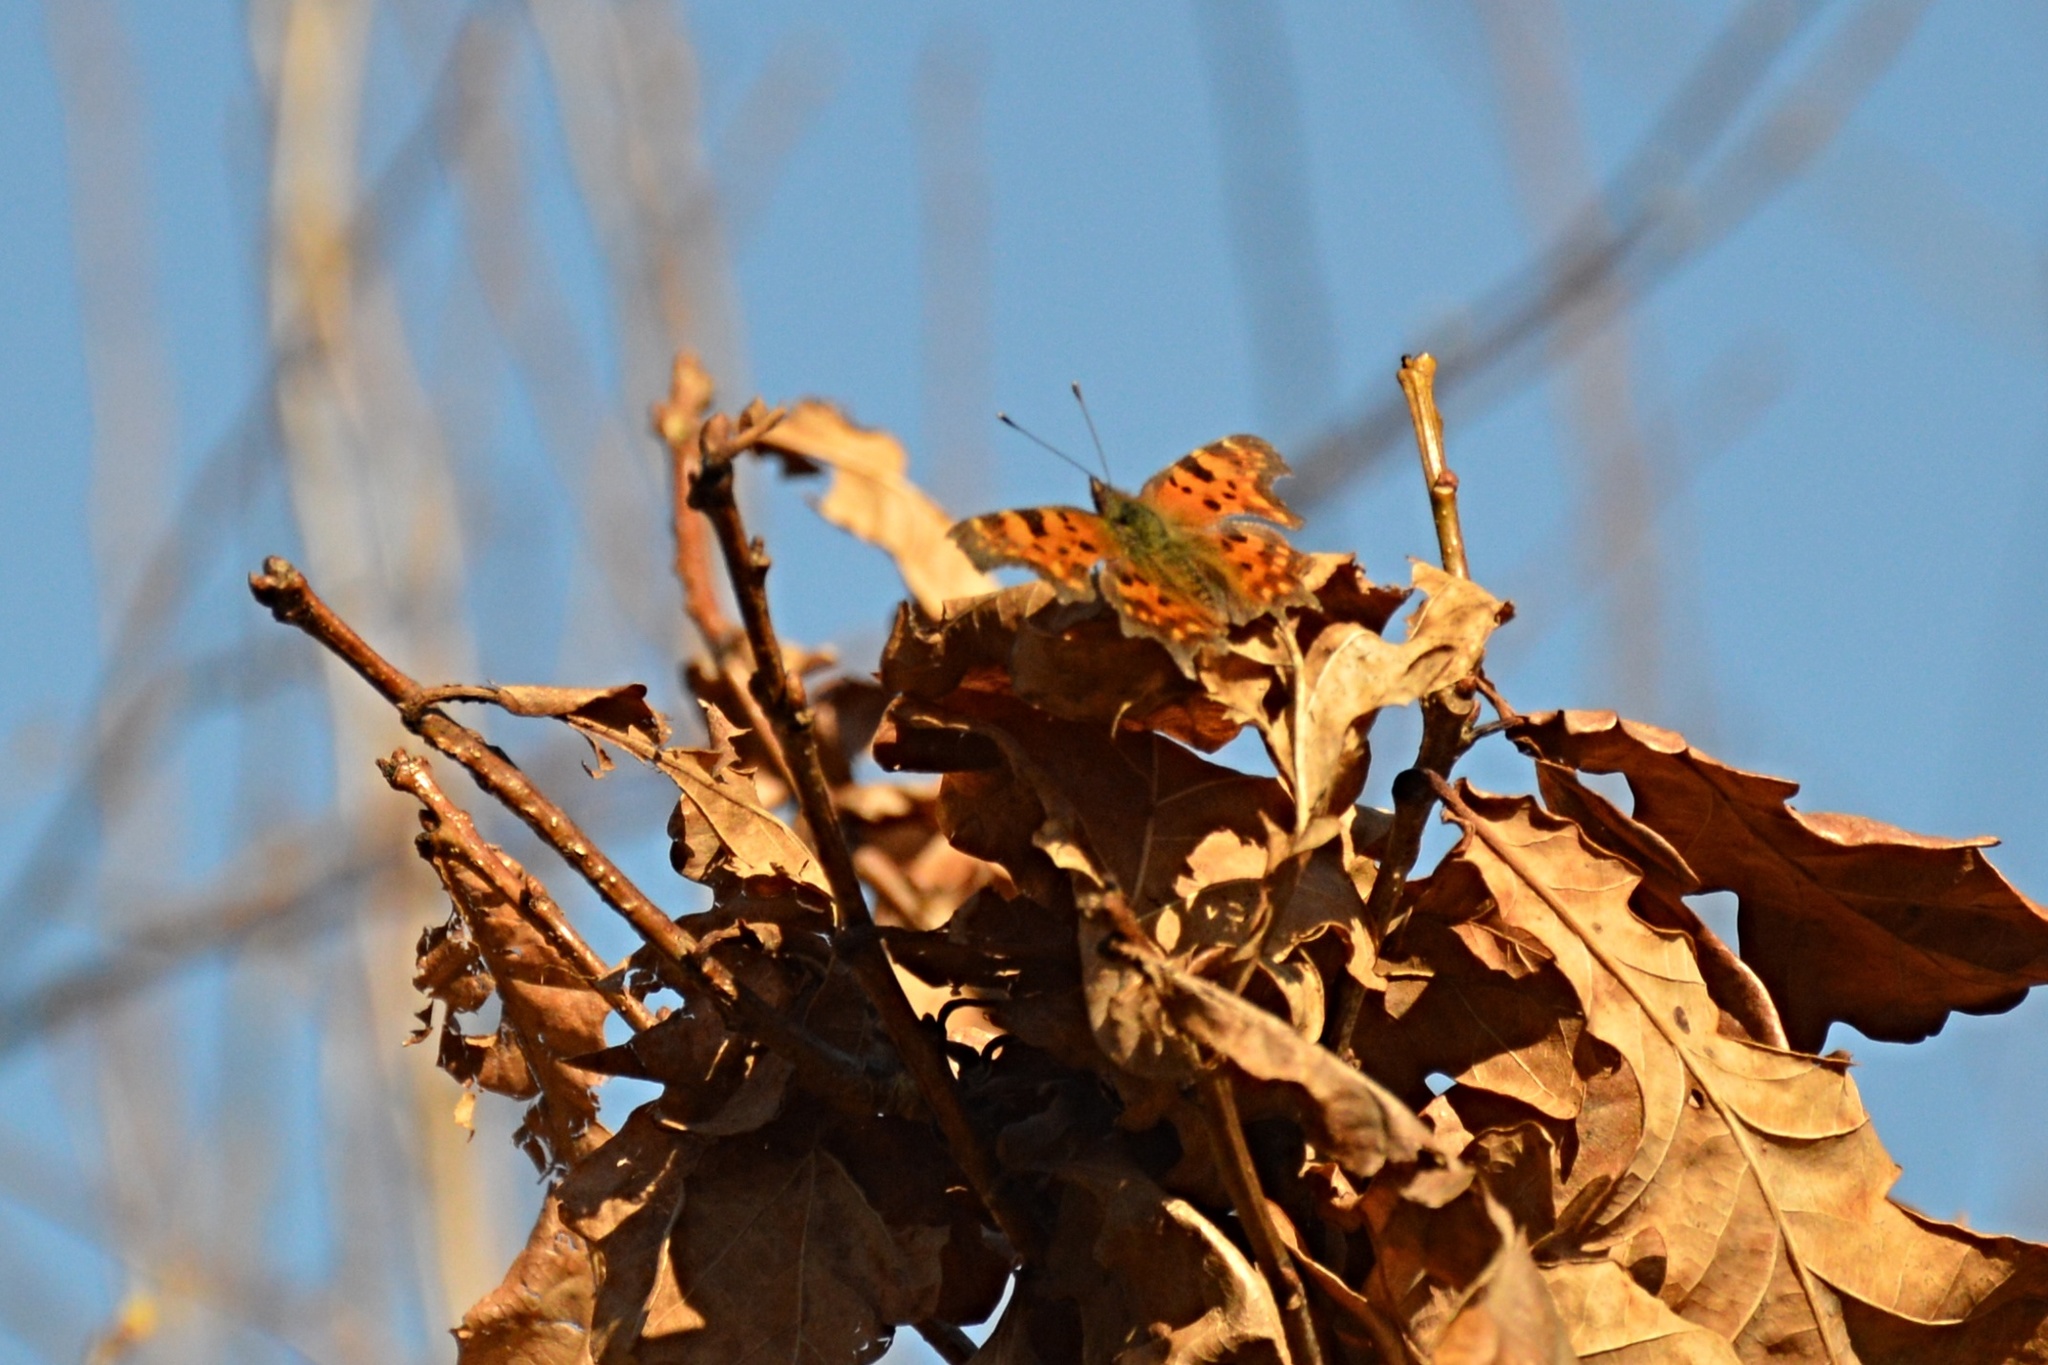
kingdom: Animalia
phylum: Arthropoda
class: Insecta
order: Lepidoptera
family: Nymphalidae
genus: Polygonia
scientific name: Polygonia c-album
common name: Comma
